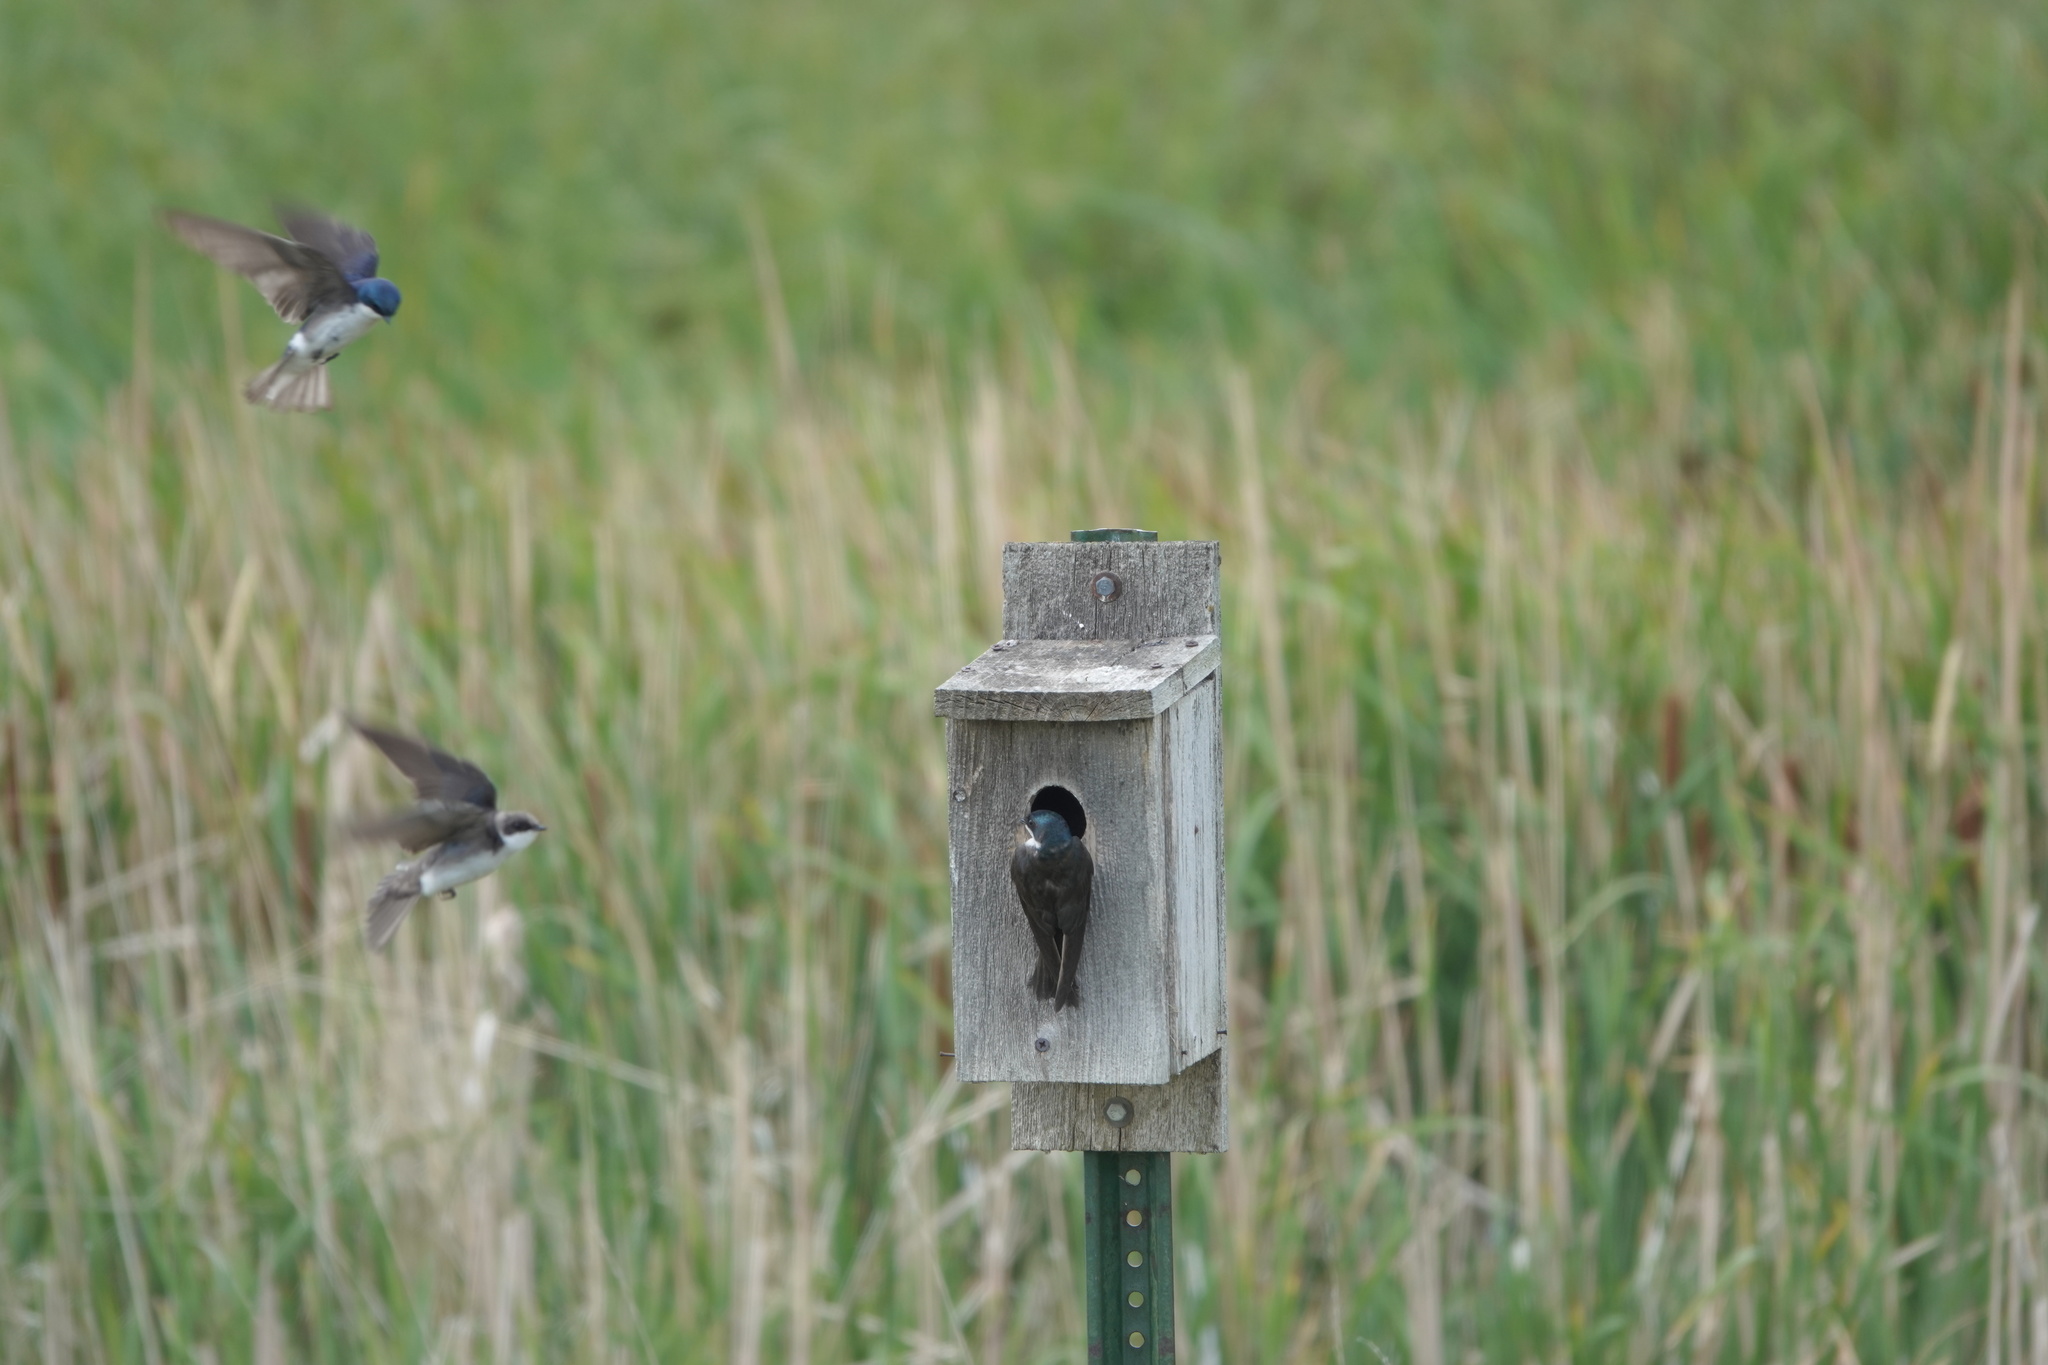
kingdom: Animalia
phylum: Chordata
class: Aves
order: Passeriformes
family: Hirundinidae
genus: Tachycineta
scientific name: Tachycineta bicolor
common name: Tree swallow
